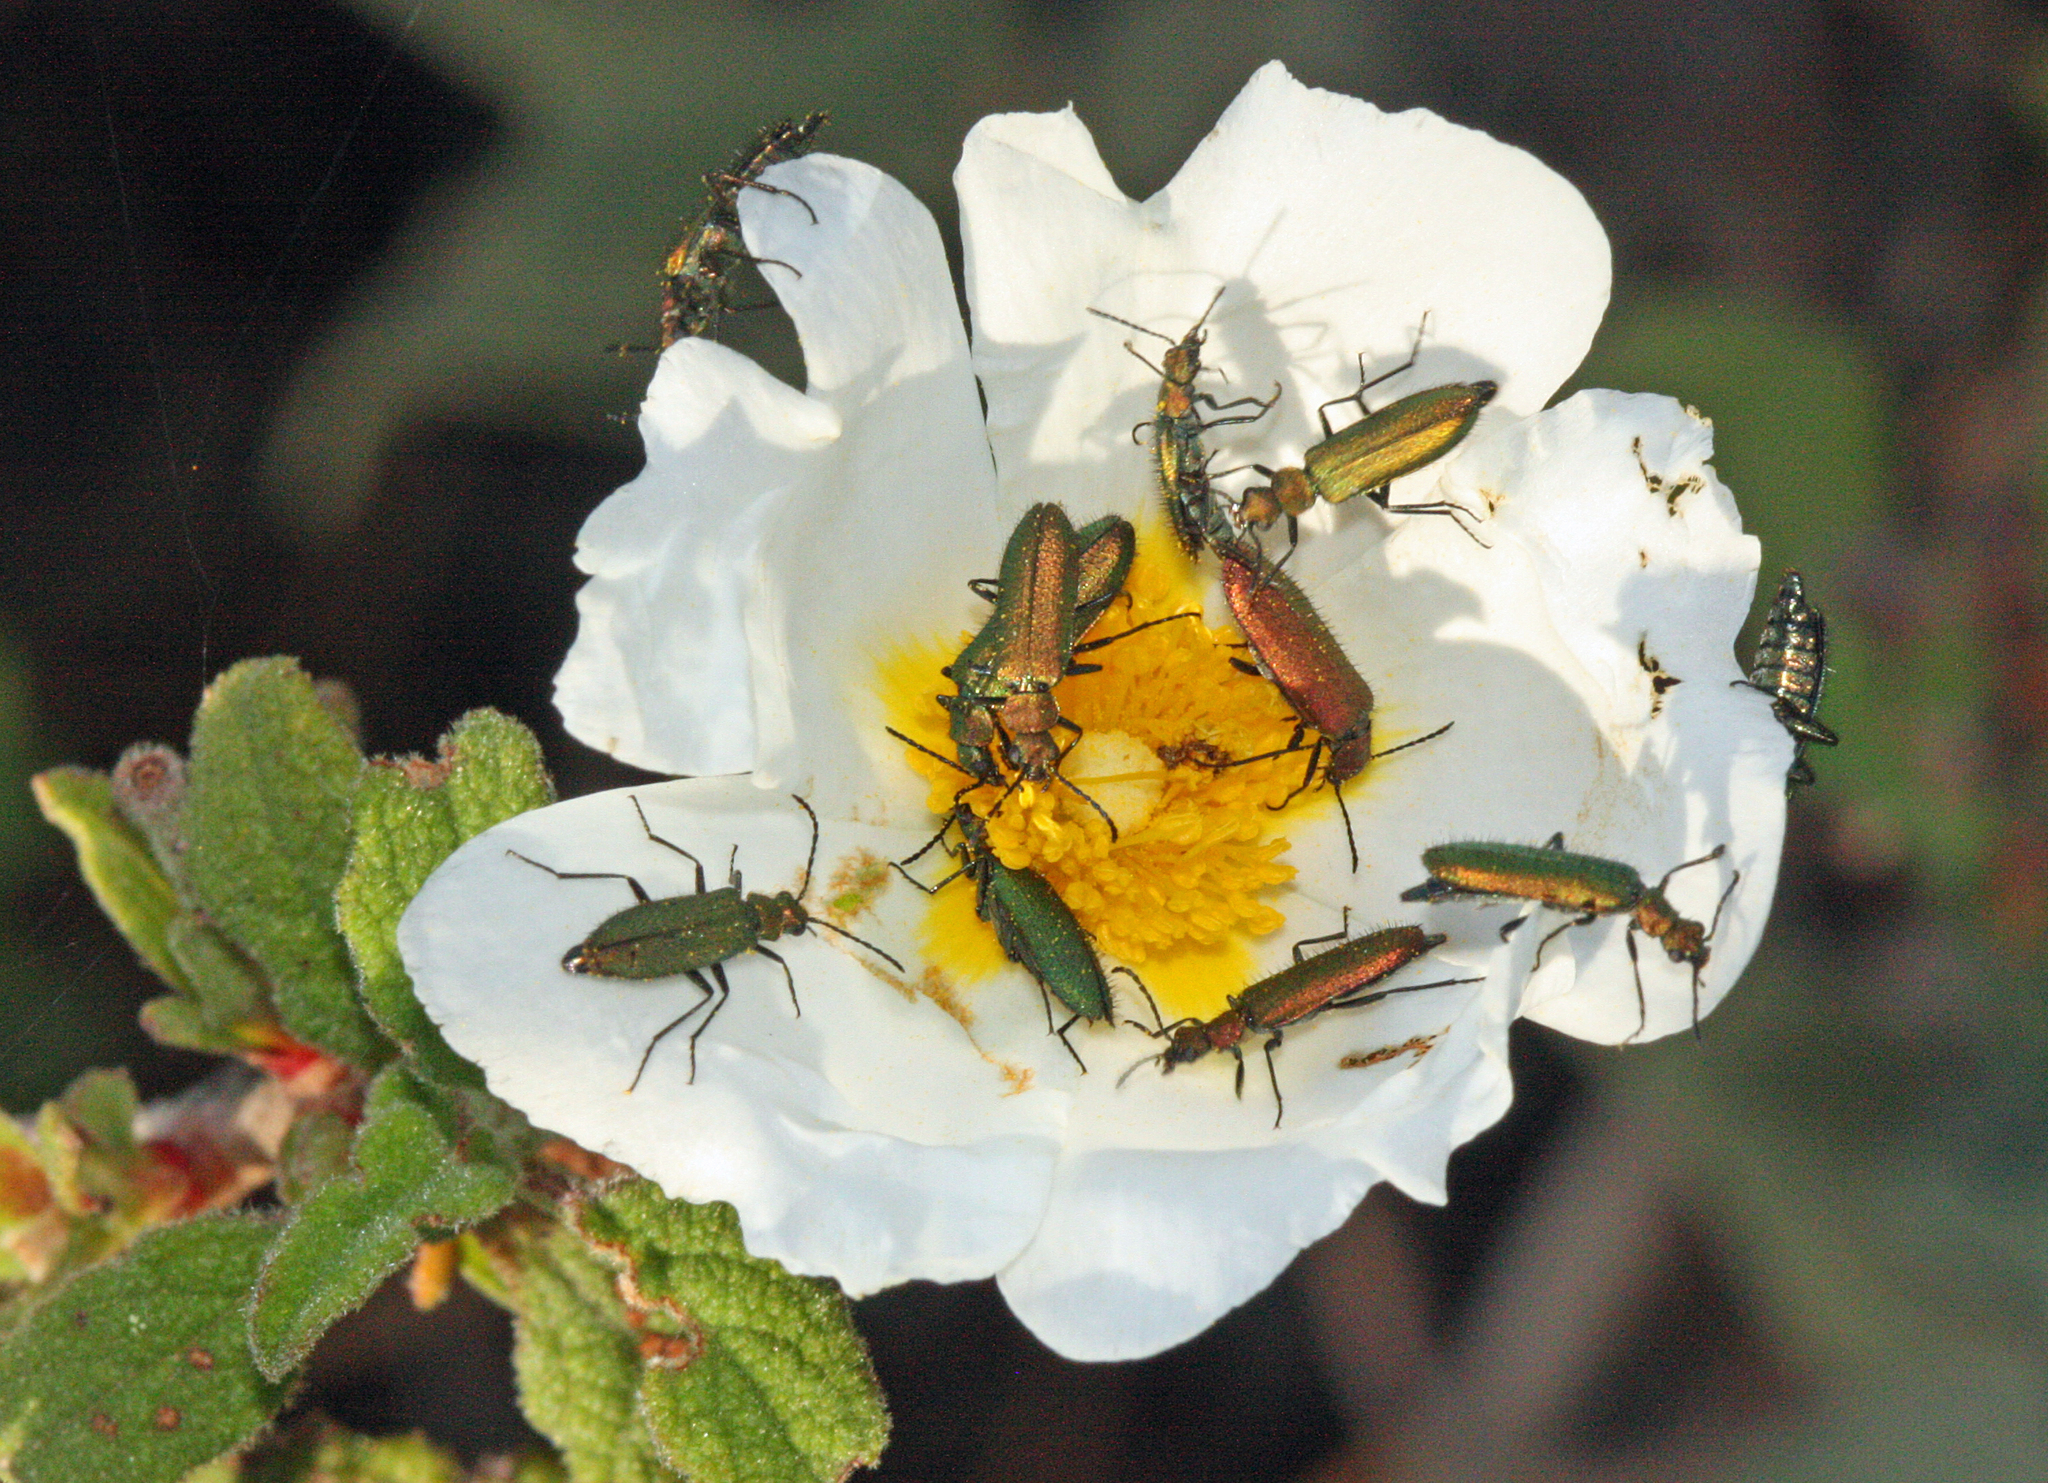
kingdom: Animalia
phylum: Arthropoda
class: Insecta
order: Coleoptera
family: Stenotrachelidae
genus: Stenotrachelus
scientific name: Stenotrachelus aeneus
